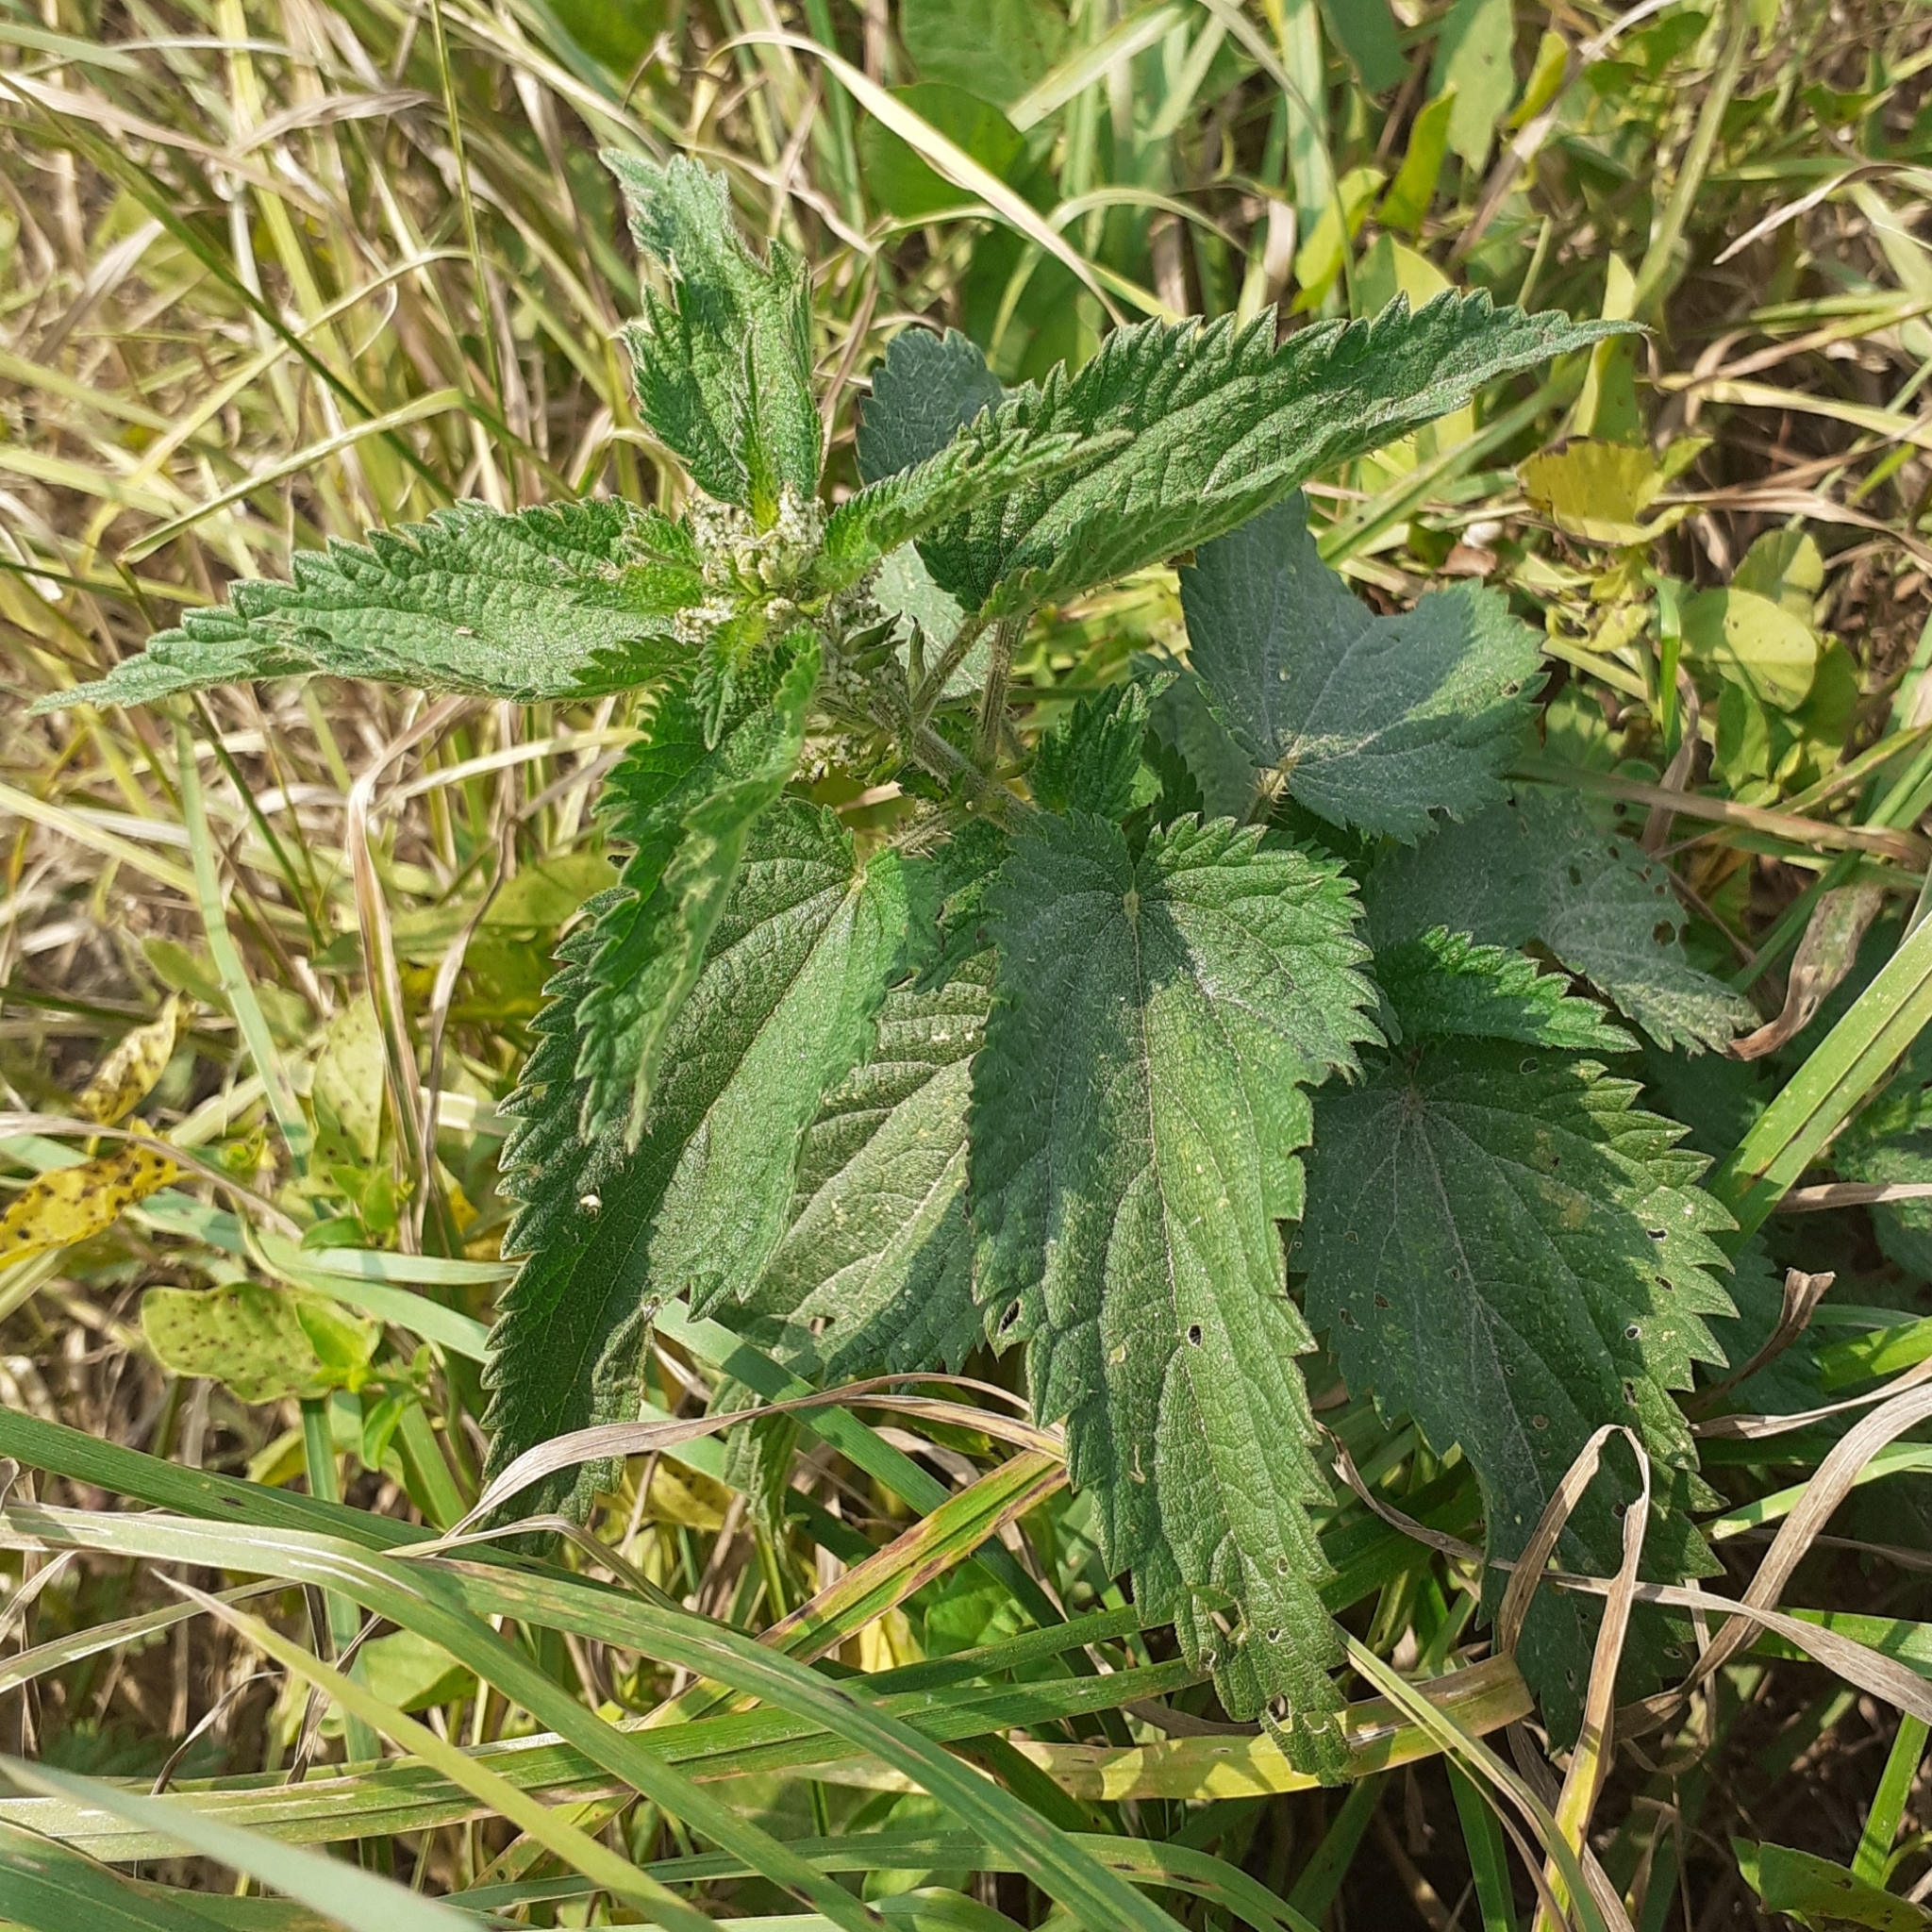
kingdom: Plantae
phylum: Tracheophyta
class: Magnoliopsida
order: Rosales
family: Urticaceae
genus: Urtica
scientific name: Urtica dioica
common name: Common nettle
